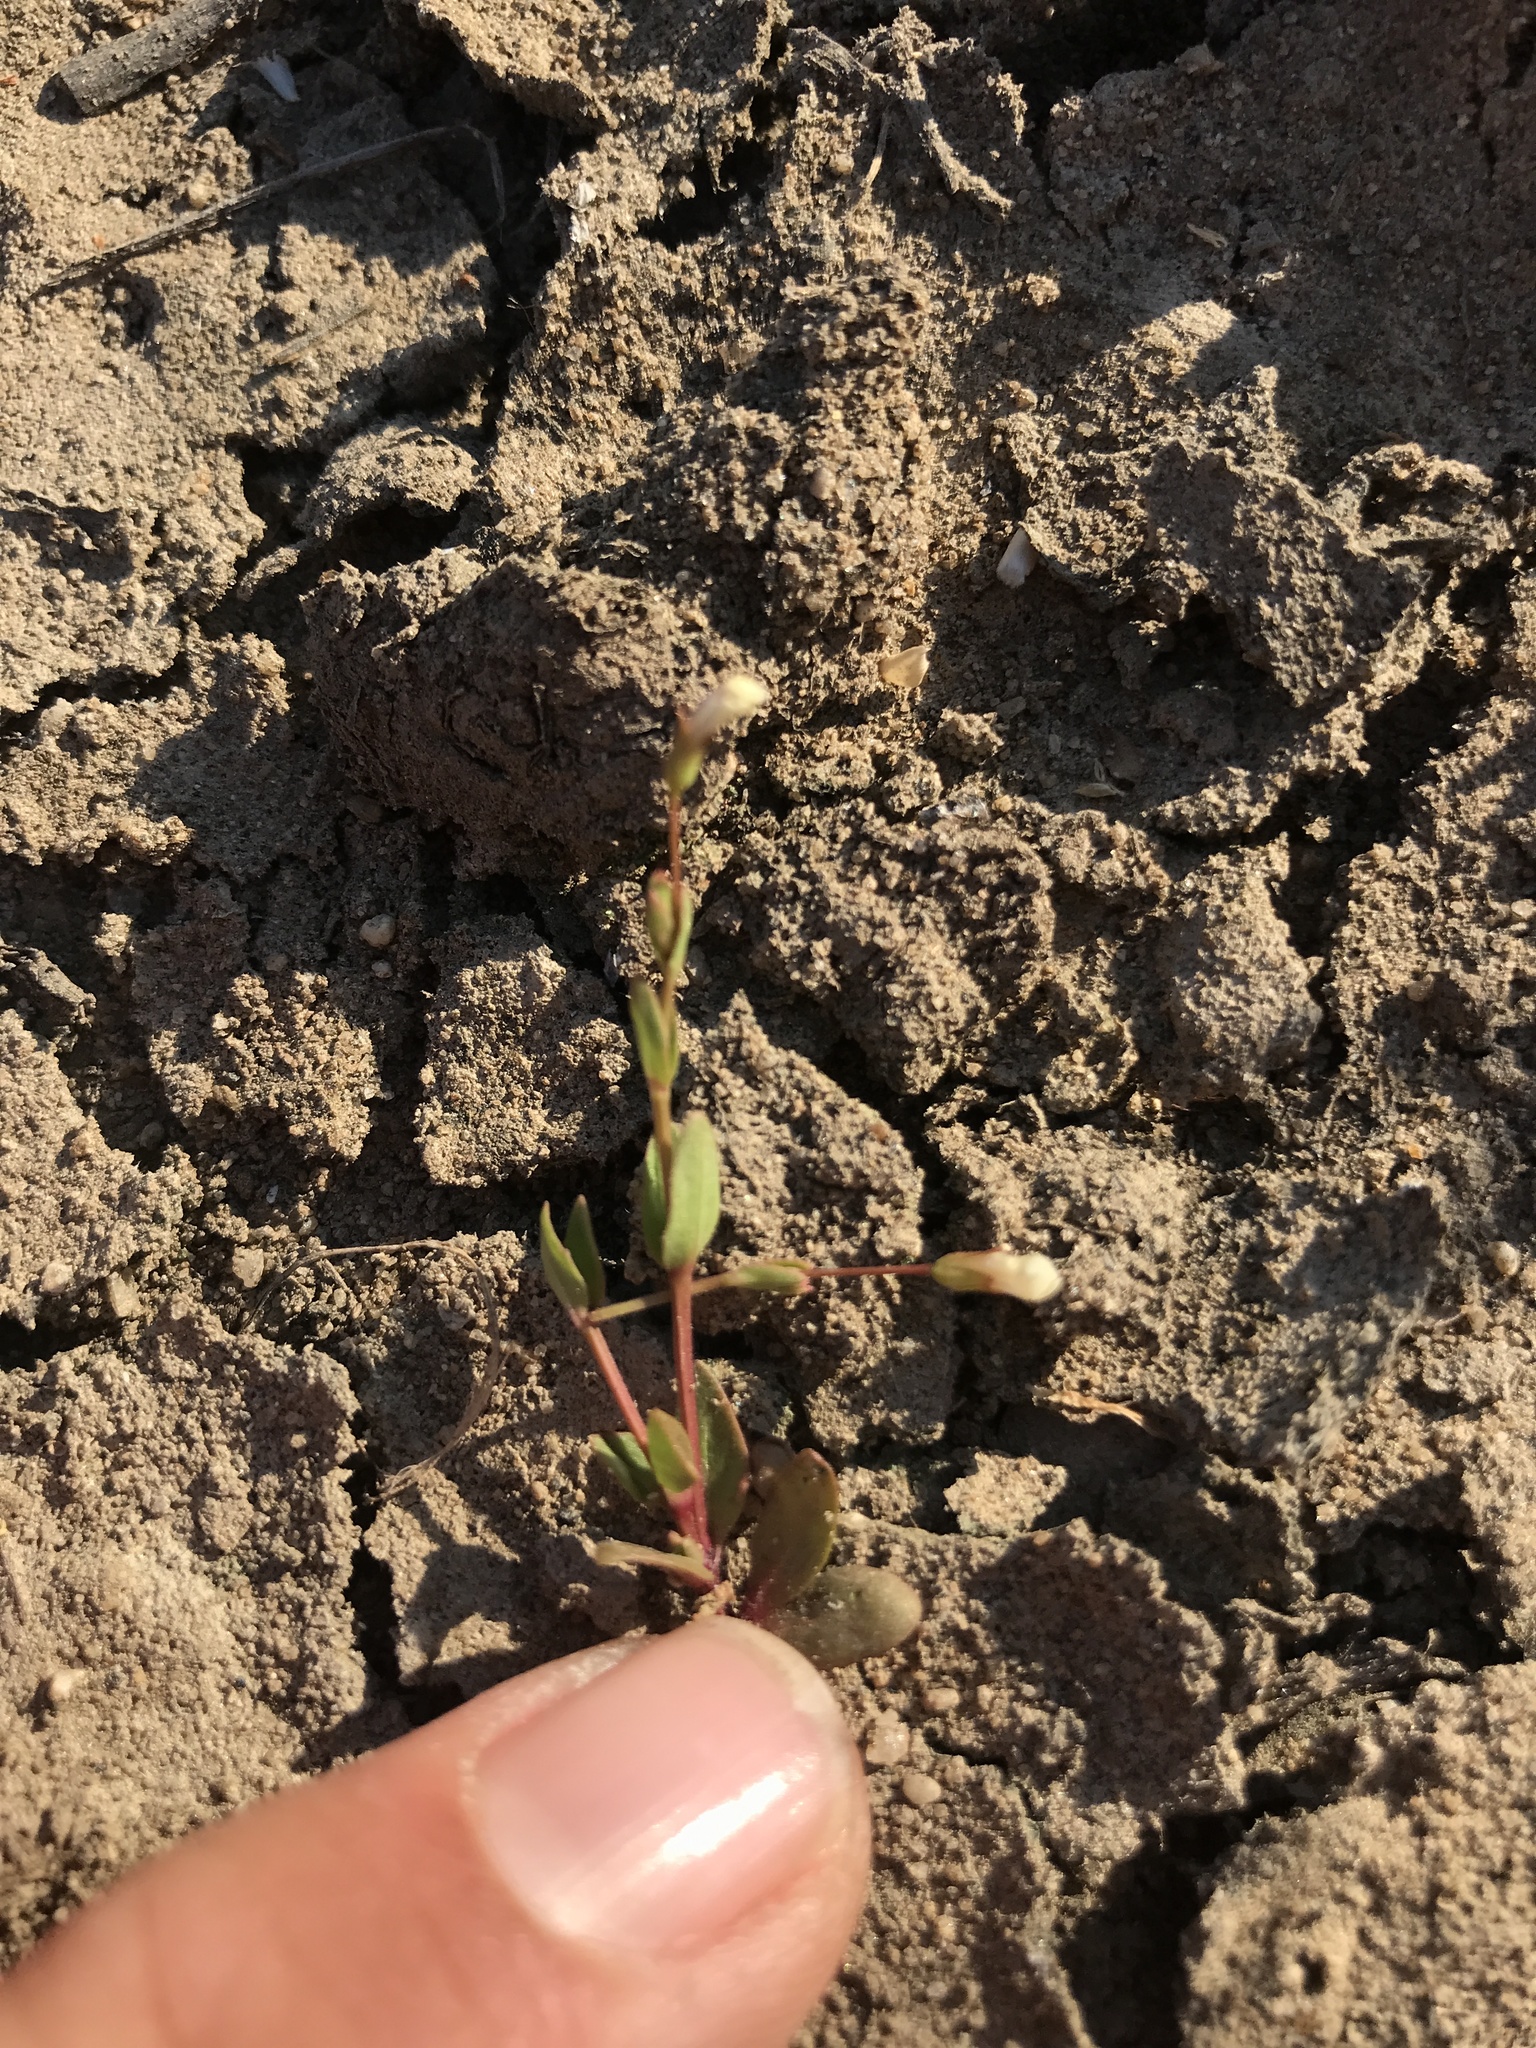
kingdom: Plantae
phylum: Tracheophyta
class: Magnoliopsida
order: Lamiales
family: Linderniaceae
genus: Lindernia
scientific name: Lindernia dubia
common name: Annual false pimpernel
